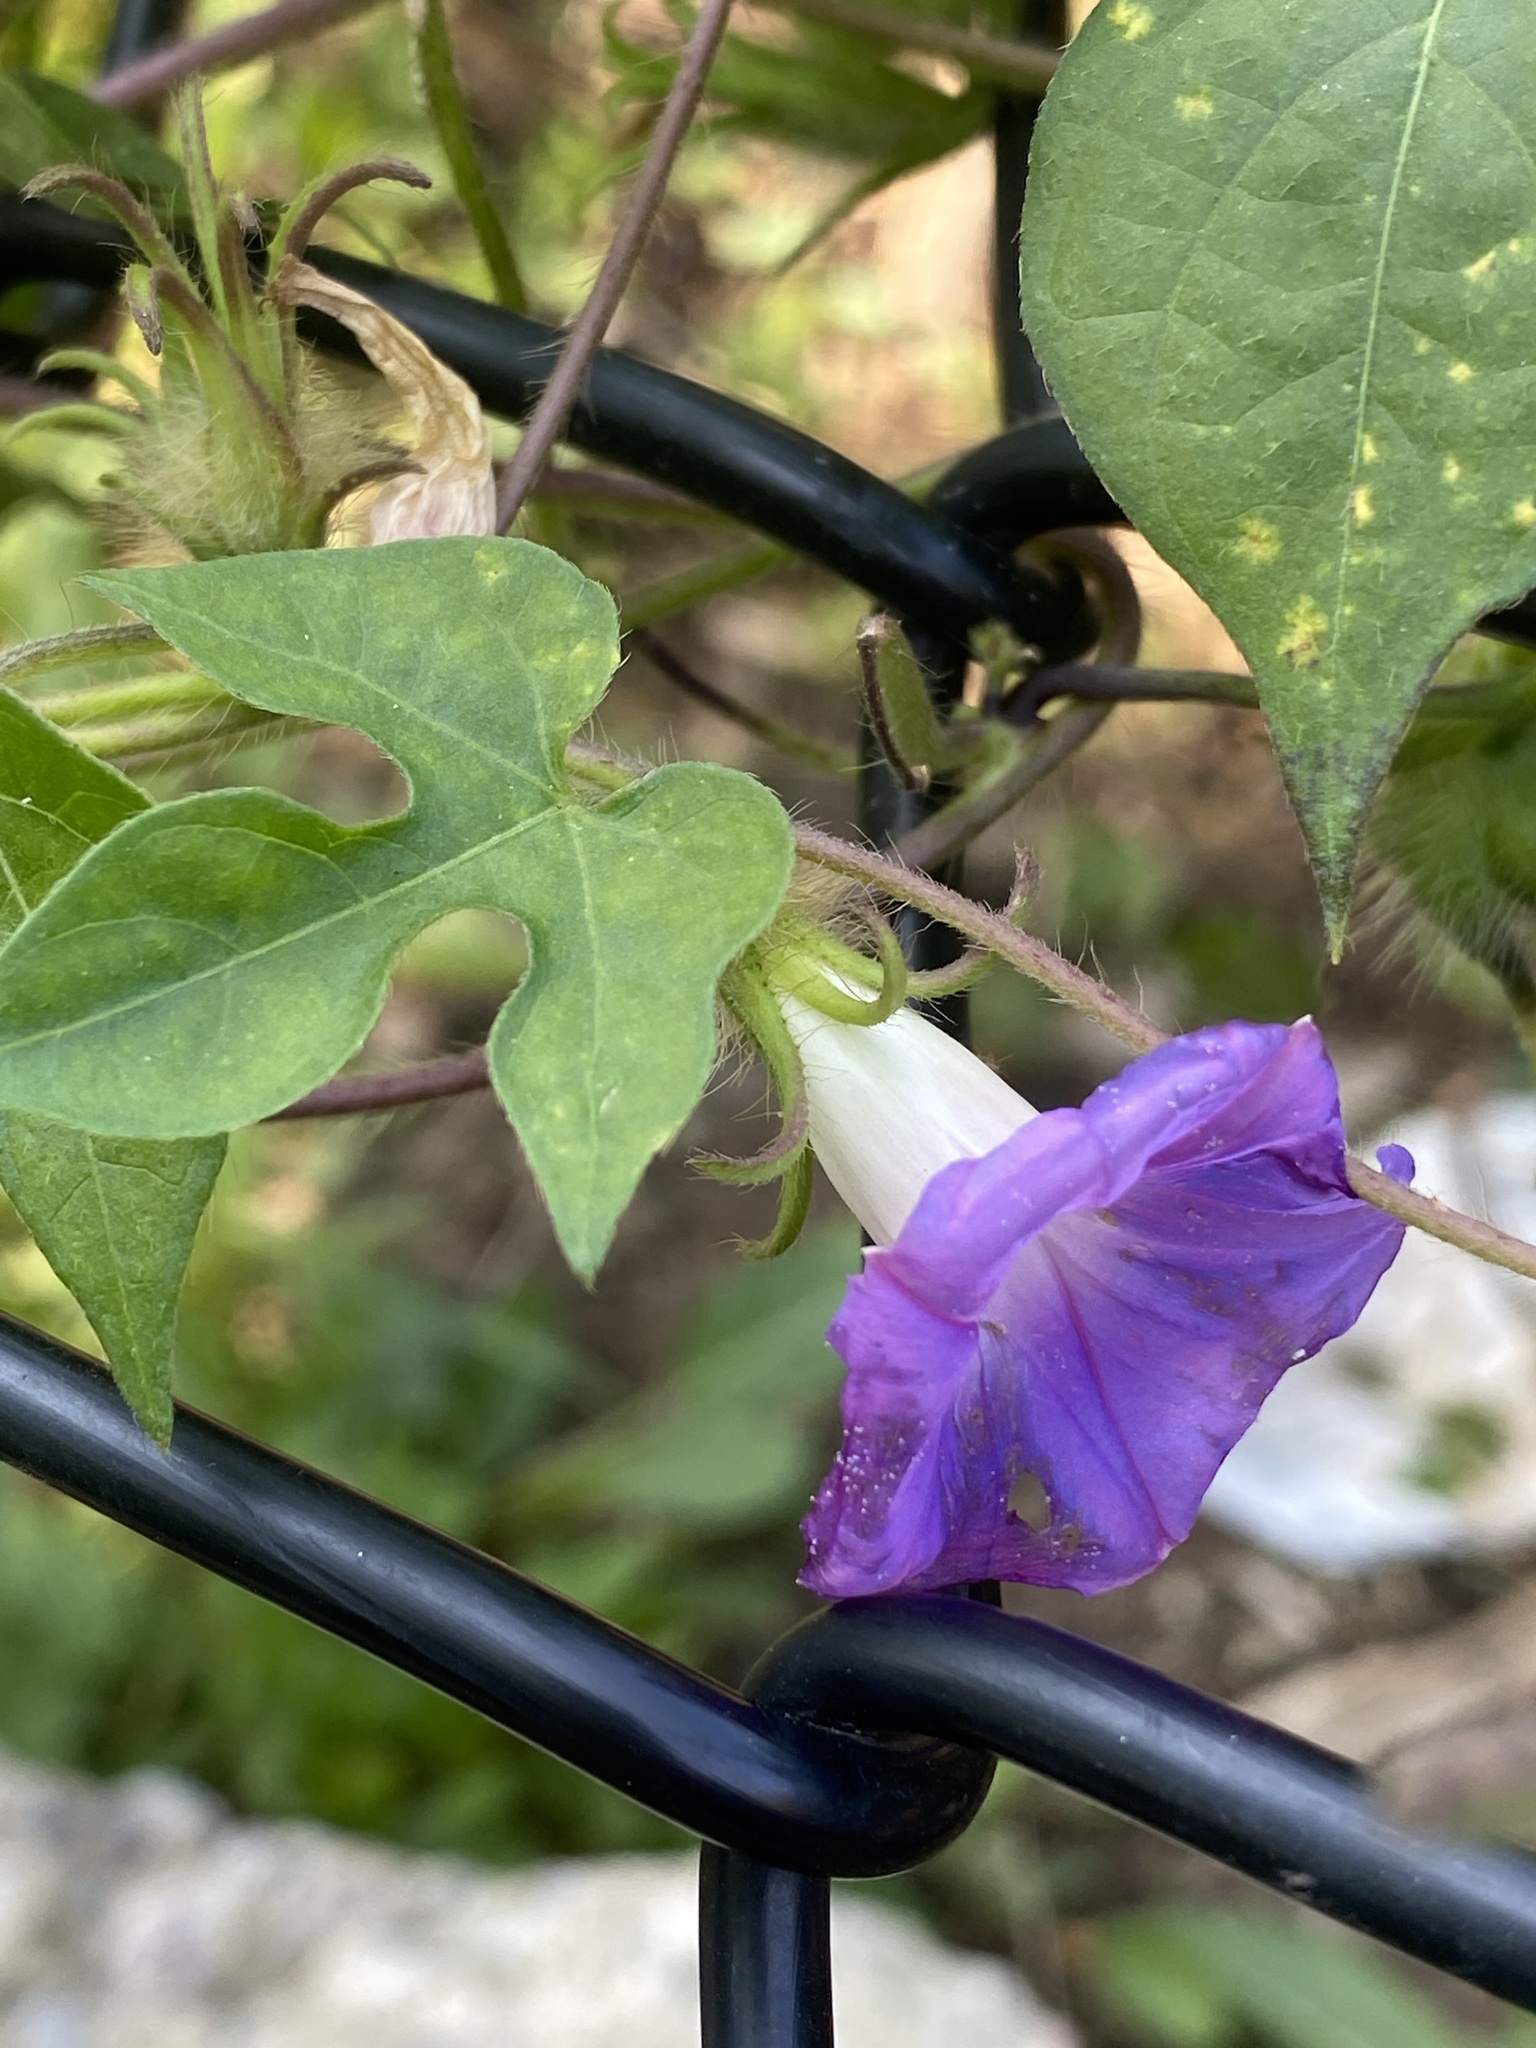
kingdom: Plantae
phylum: Tracheophyta
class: Magnoliopsida
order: Solanales
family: Convolvulaceae
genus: Ipomoea
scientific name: Ipomoea hederacea
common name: Ivy-leaved morning-glory
